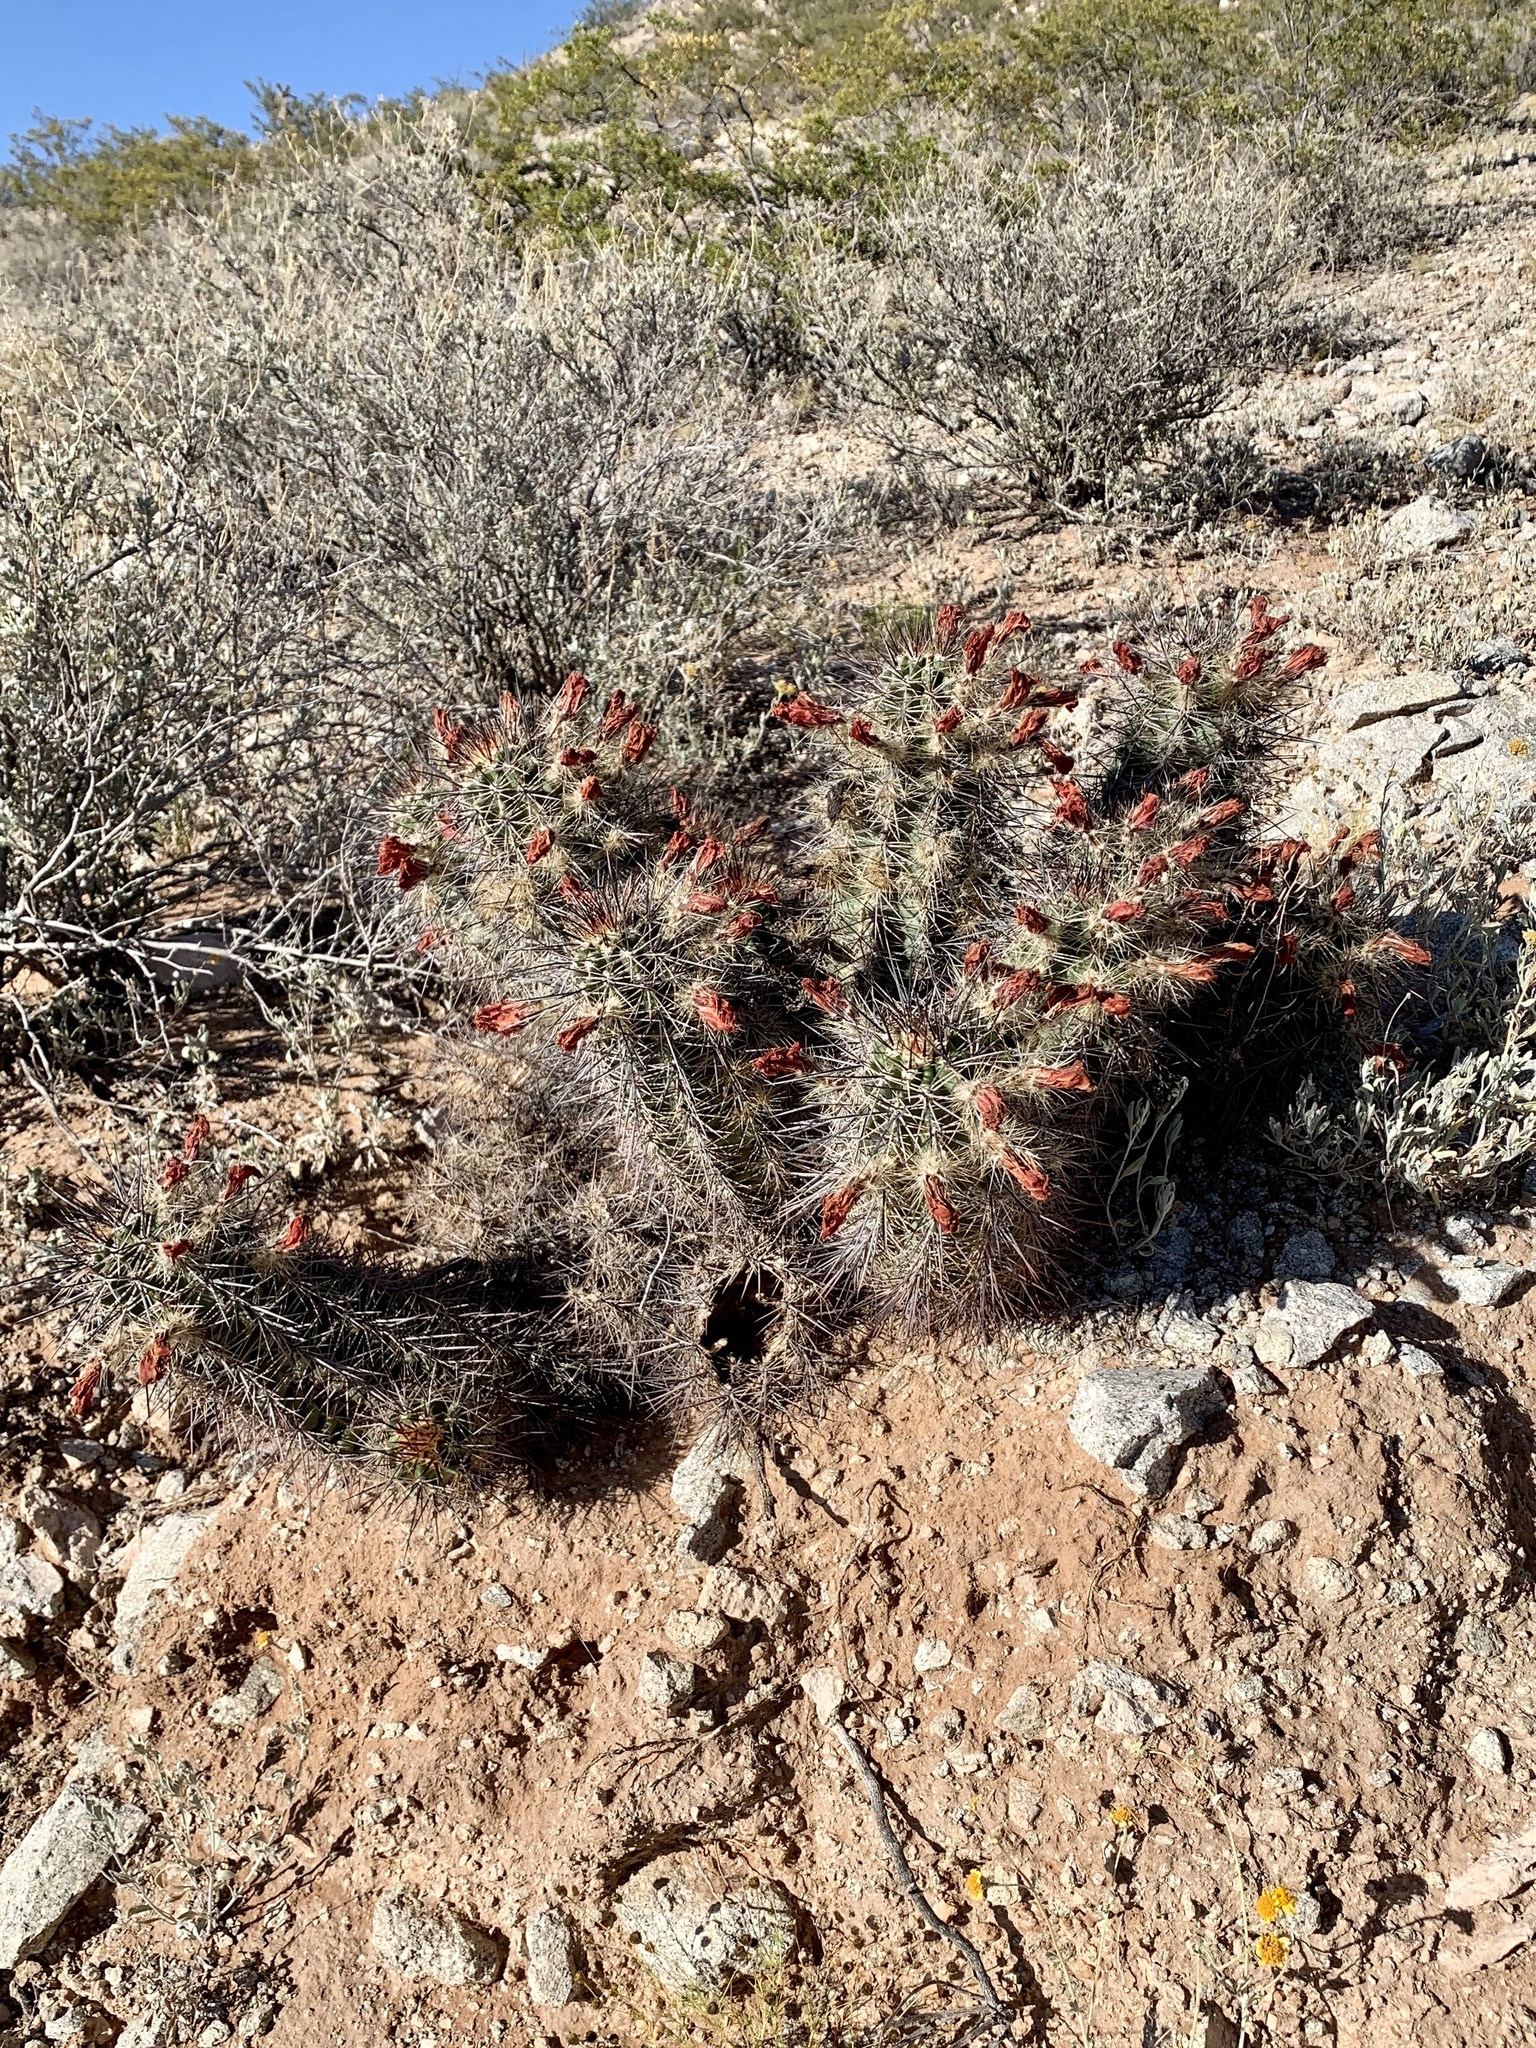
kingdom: Plantae
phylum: Tracheophyta
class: Magnoliopsida
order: Caryophyllales
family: Cactaceae
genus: Echinocereus
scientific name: Echinocereus coccineus
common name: Scarlet hedgehog cactus
